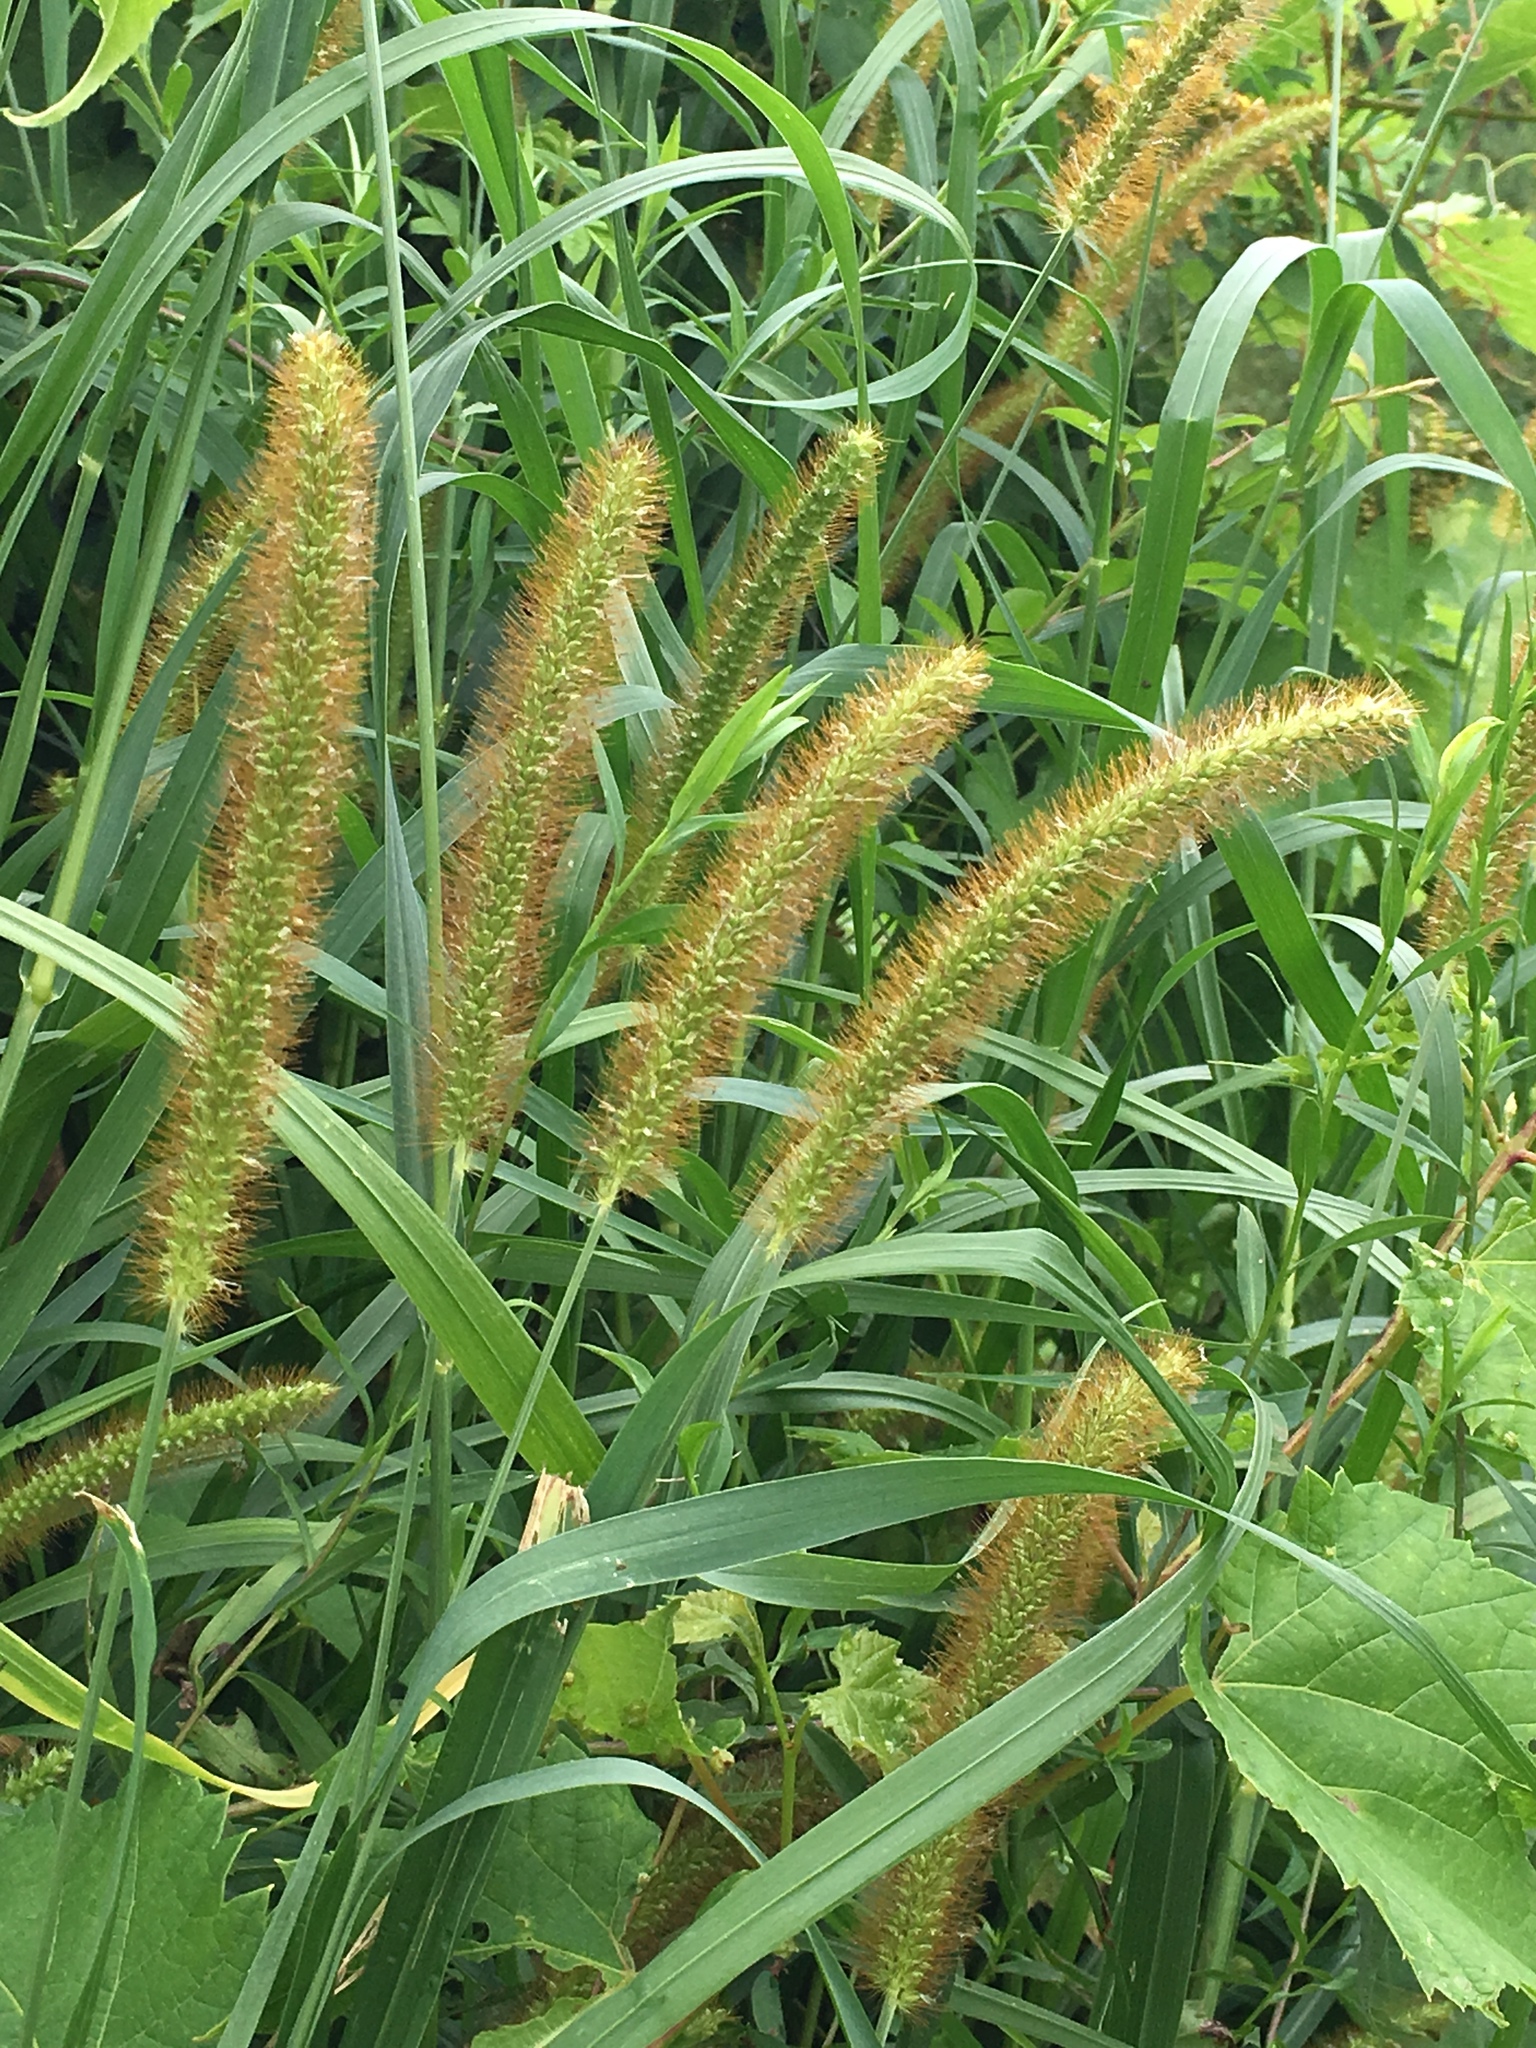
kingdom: Plantae
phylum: Tracheophyta
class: Liliopsida
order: Poales
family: Poaceae
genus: Setaria
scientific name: Setaria pumila
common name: Yellow bristle-grass
